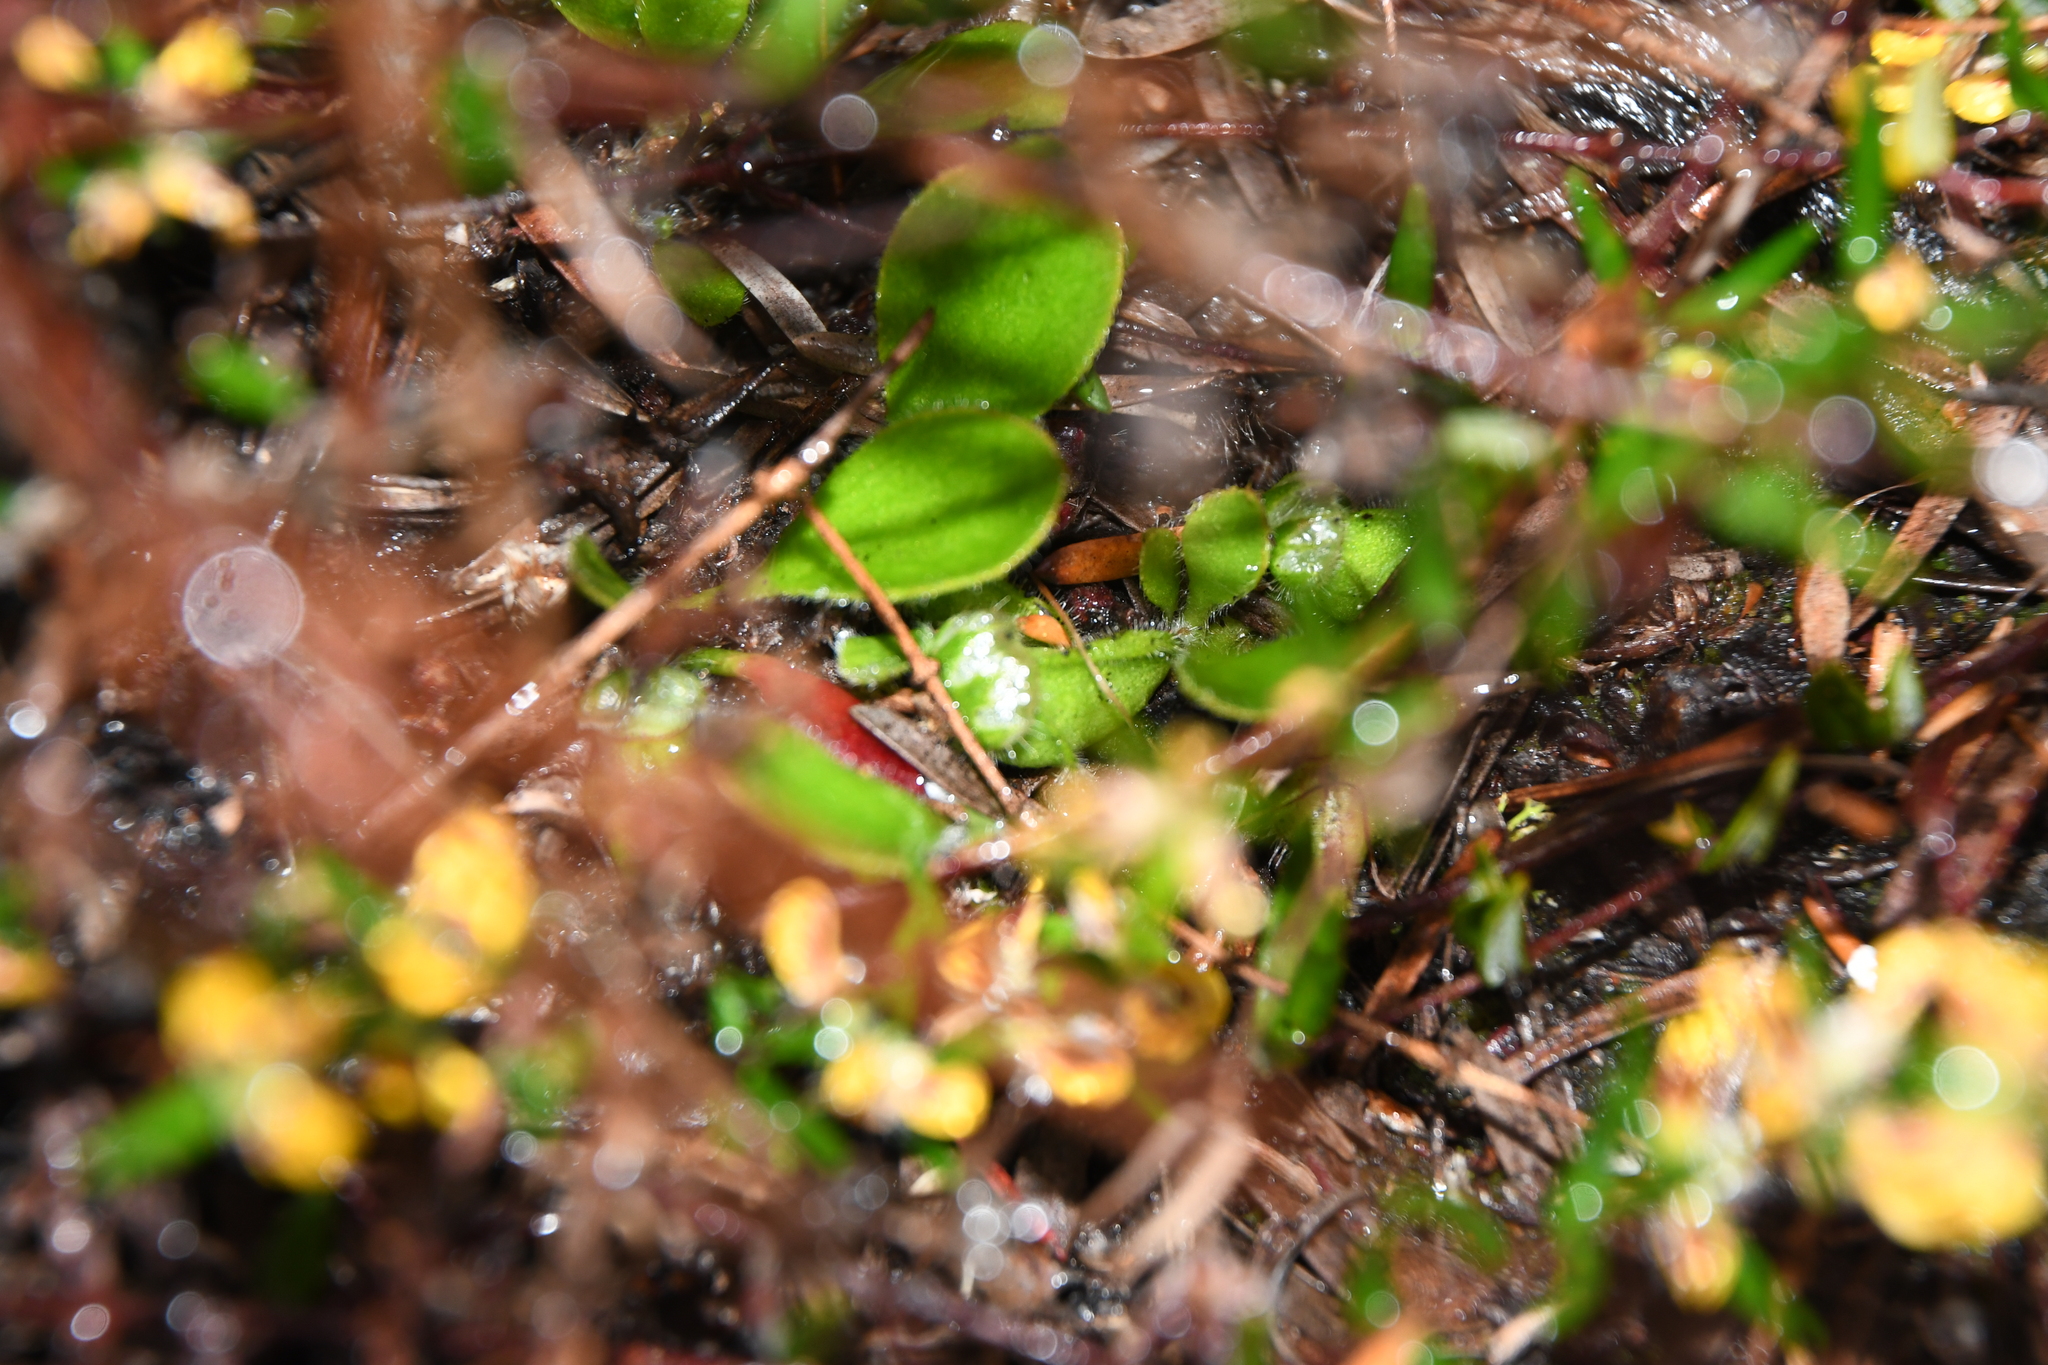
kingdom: Plantae
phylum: Tracheophyta
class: Magnoliopsida
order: Oxalidales
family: Cephalotaceae
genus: Cephalotus
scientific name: Cephalotus follicularis
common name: Australian pitcher plant
